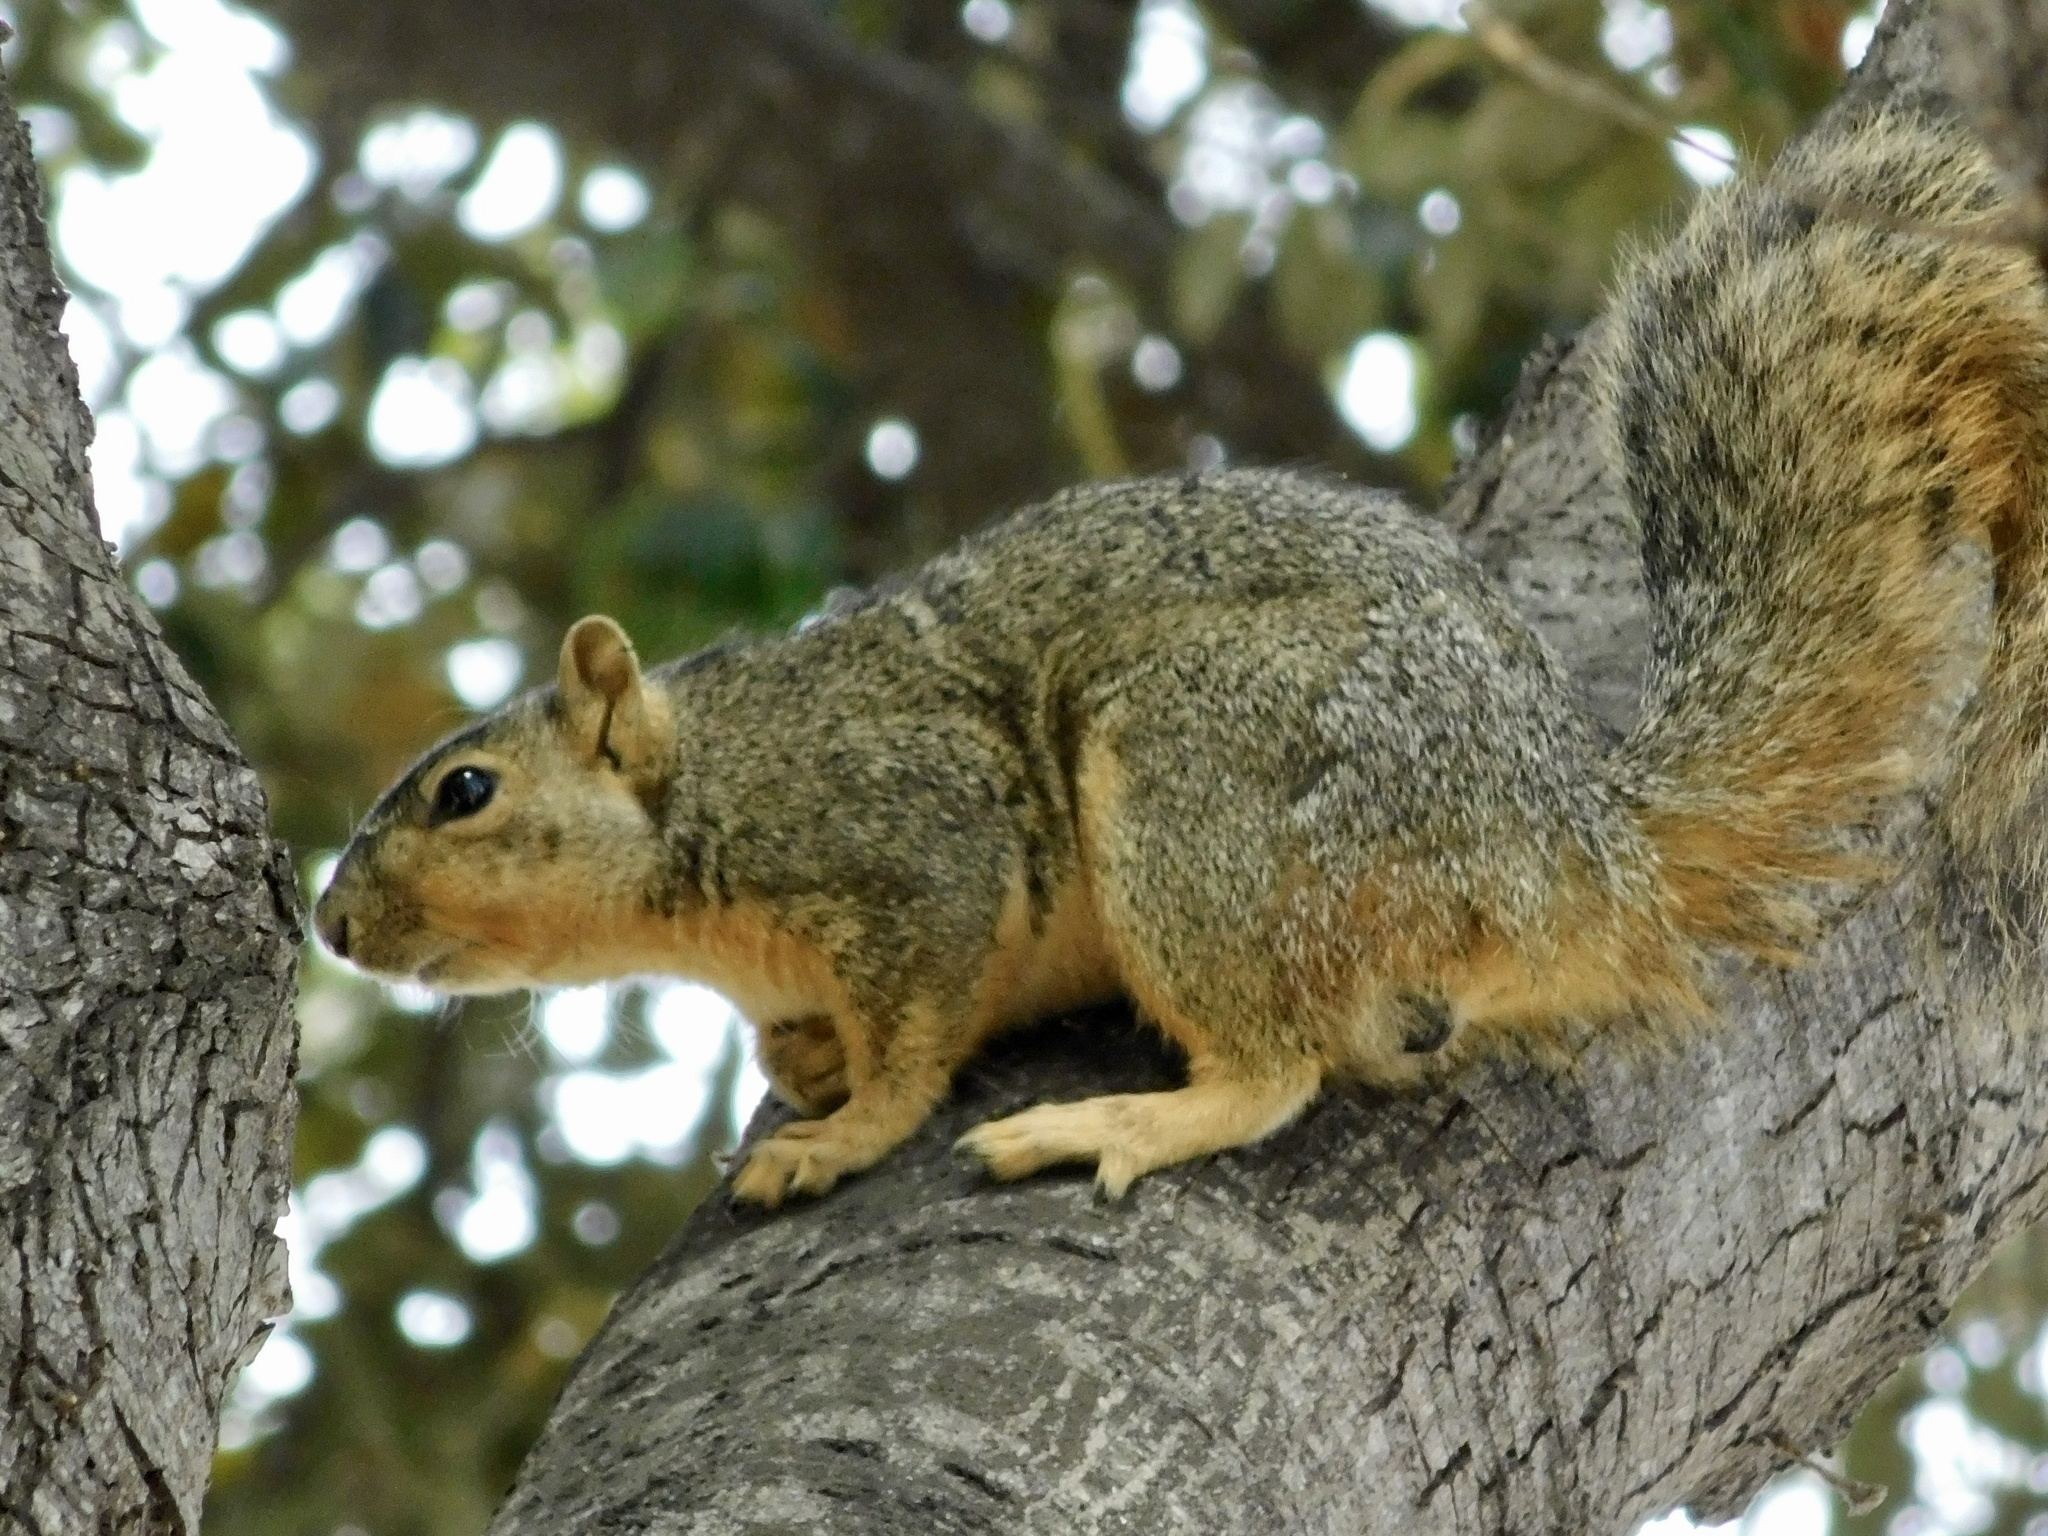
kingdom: Animalia
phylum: Chordata
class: Mammalia
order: Rodentia
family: Sciuridae
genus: Sciurus
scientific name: Sciurus niger
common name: Fox squirrel
